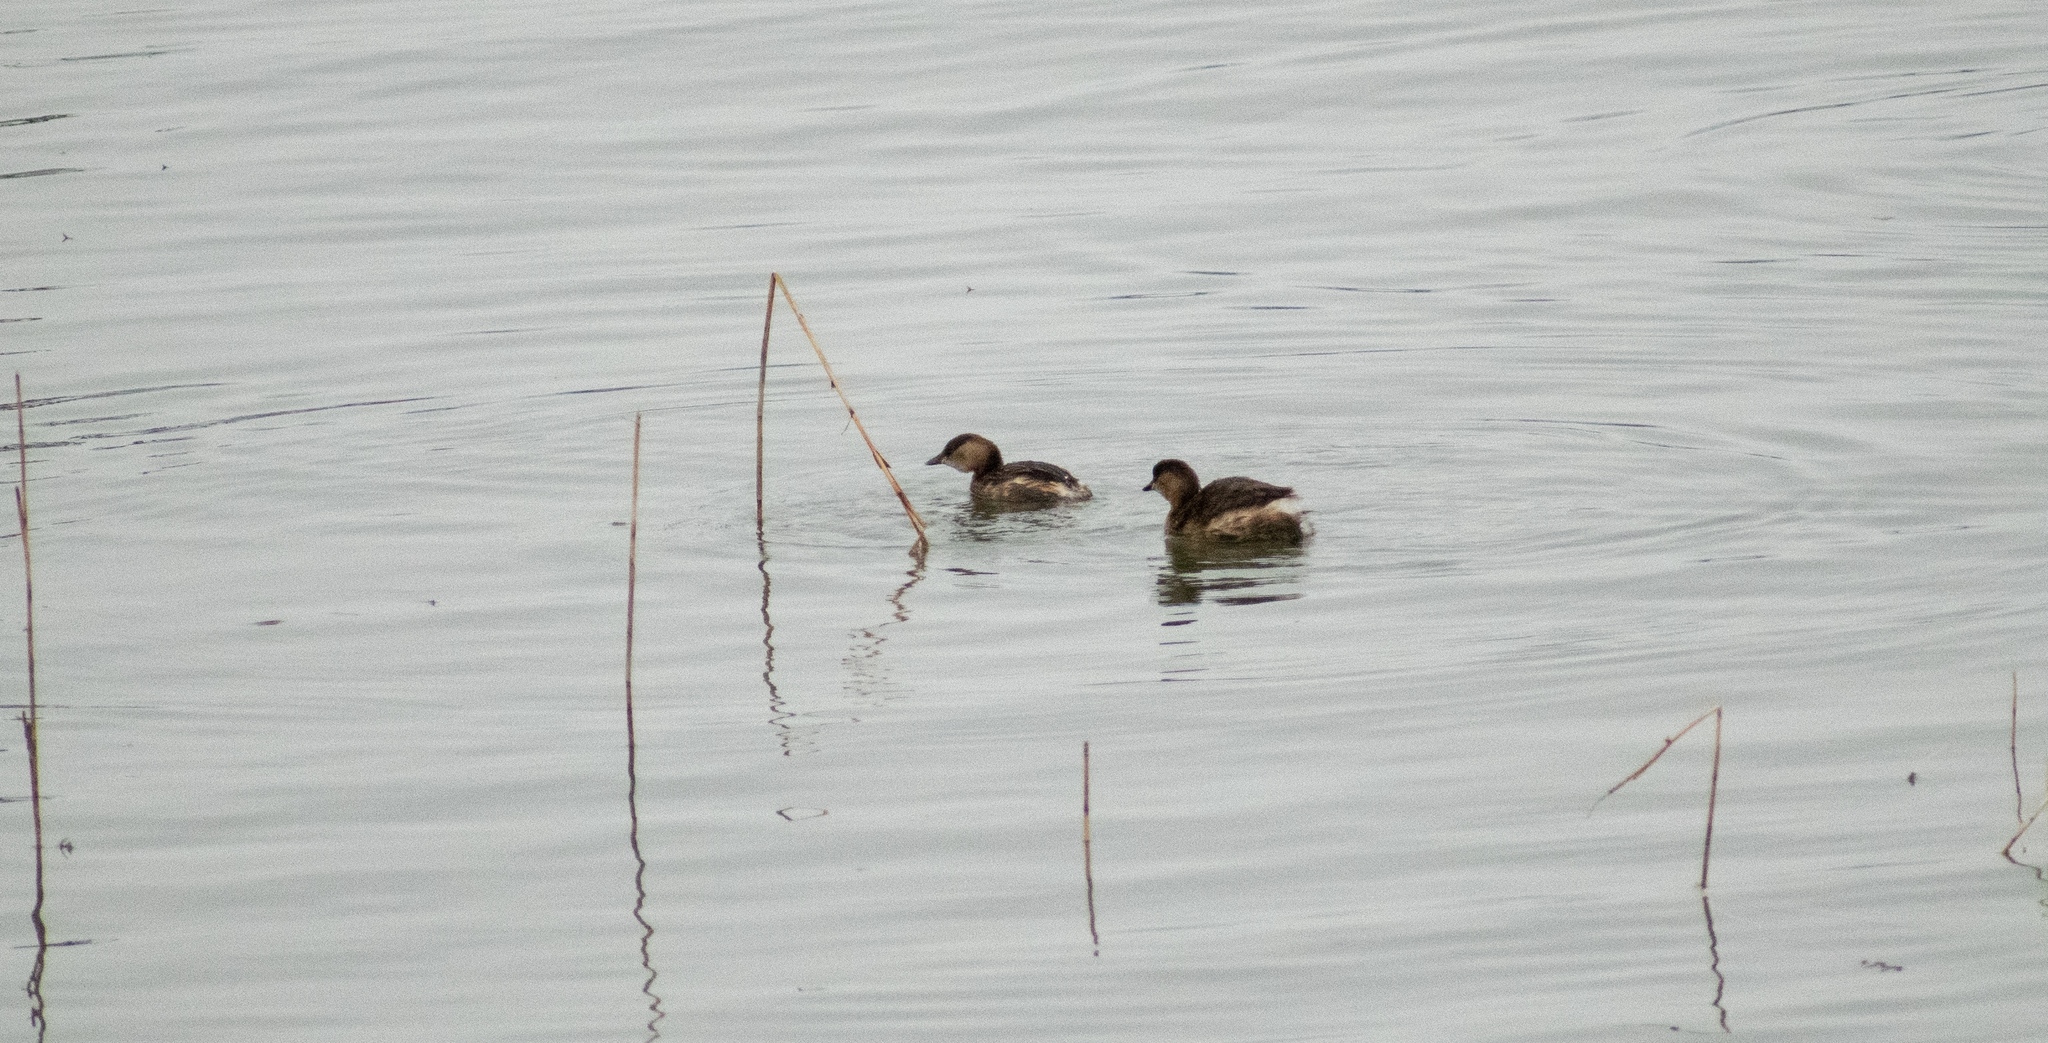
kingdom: Animalia
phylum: Chordata
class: Aves
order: Podicipediformes
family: Podicipedidae
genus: Tachybaptus
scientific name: Tachybaptus ruficollis
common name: Little grebe
